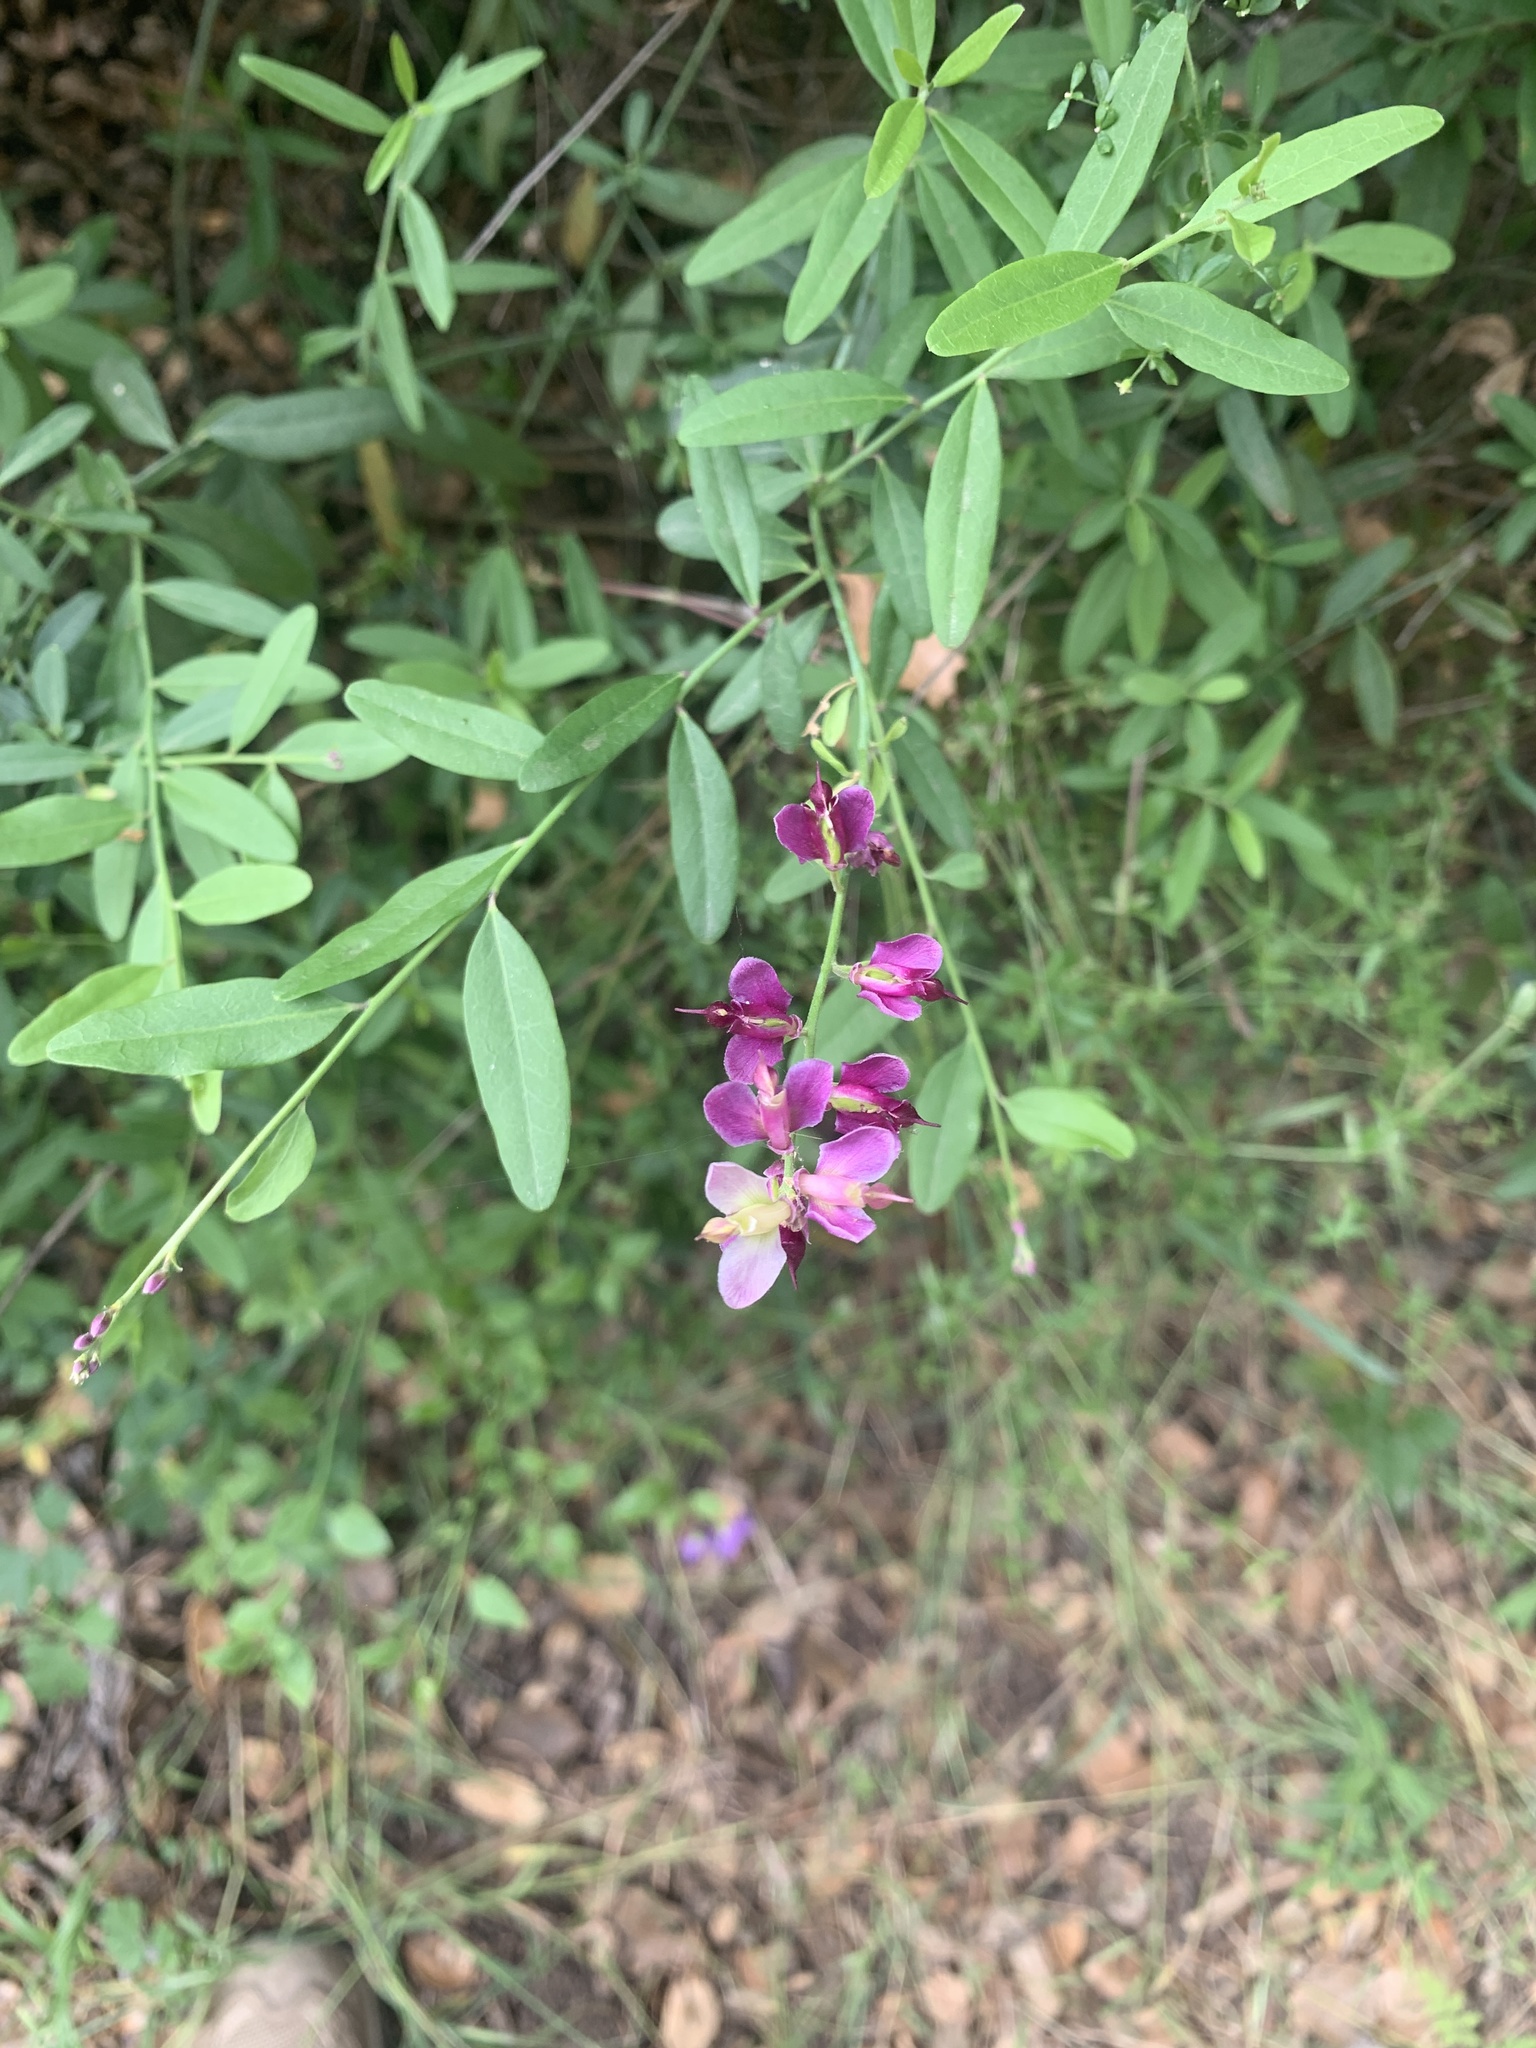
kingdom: Plantae
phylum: Tracheophyta
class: Magnoliopsida
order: Fabales
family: Polygalaceae
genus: Rhinotropis
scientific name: Rhinotropis cornuta
